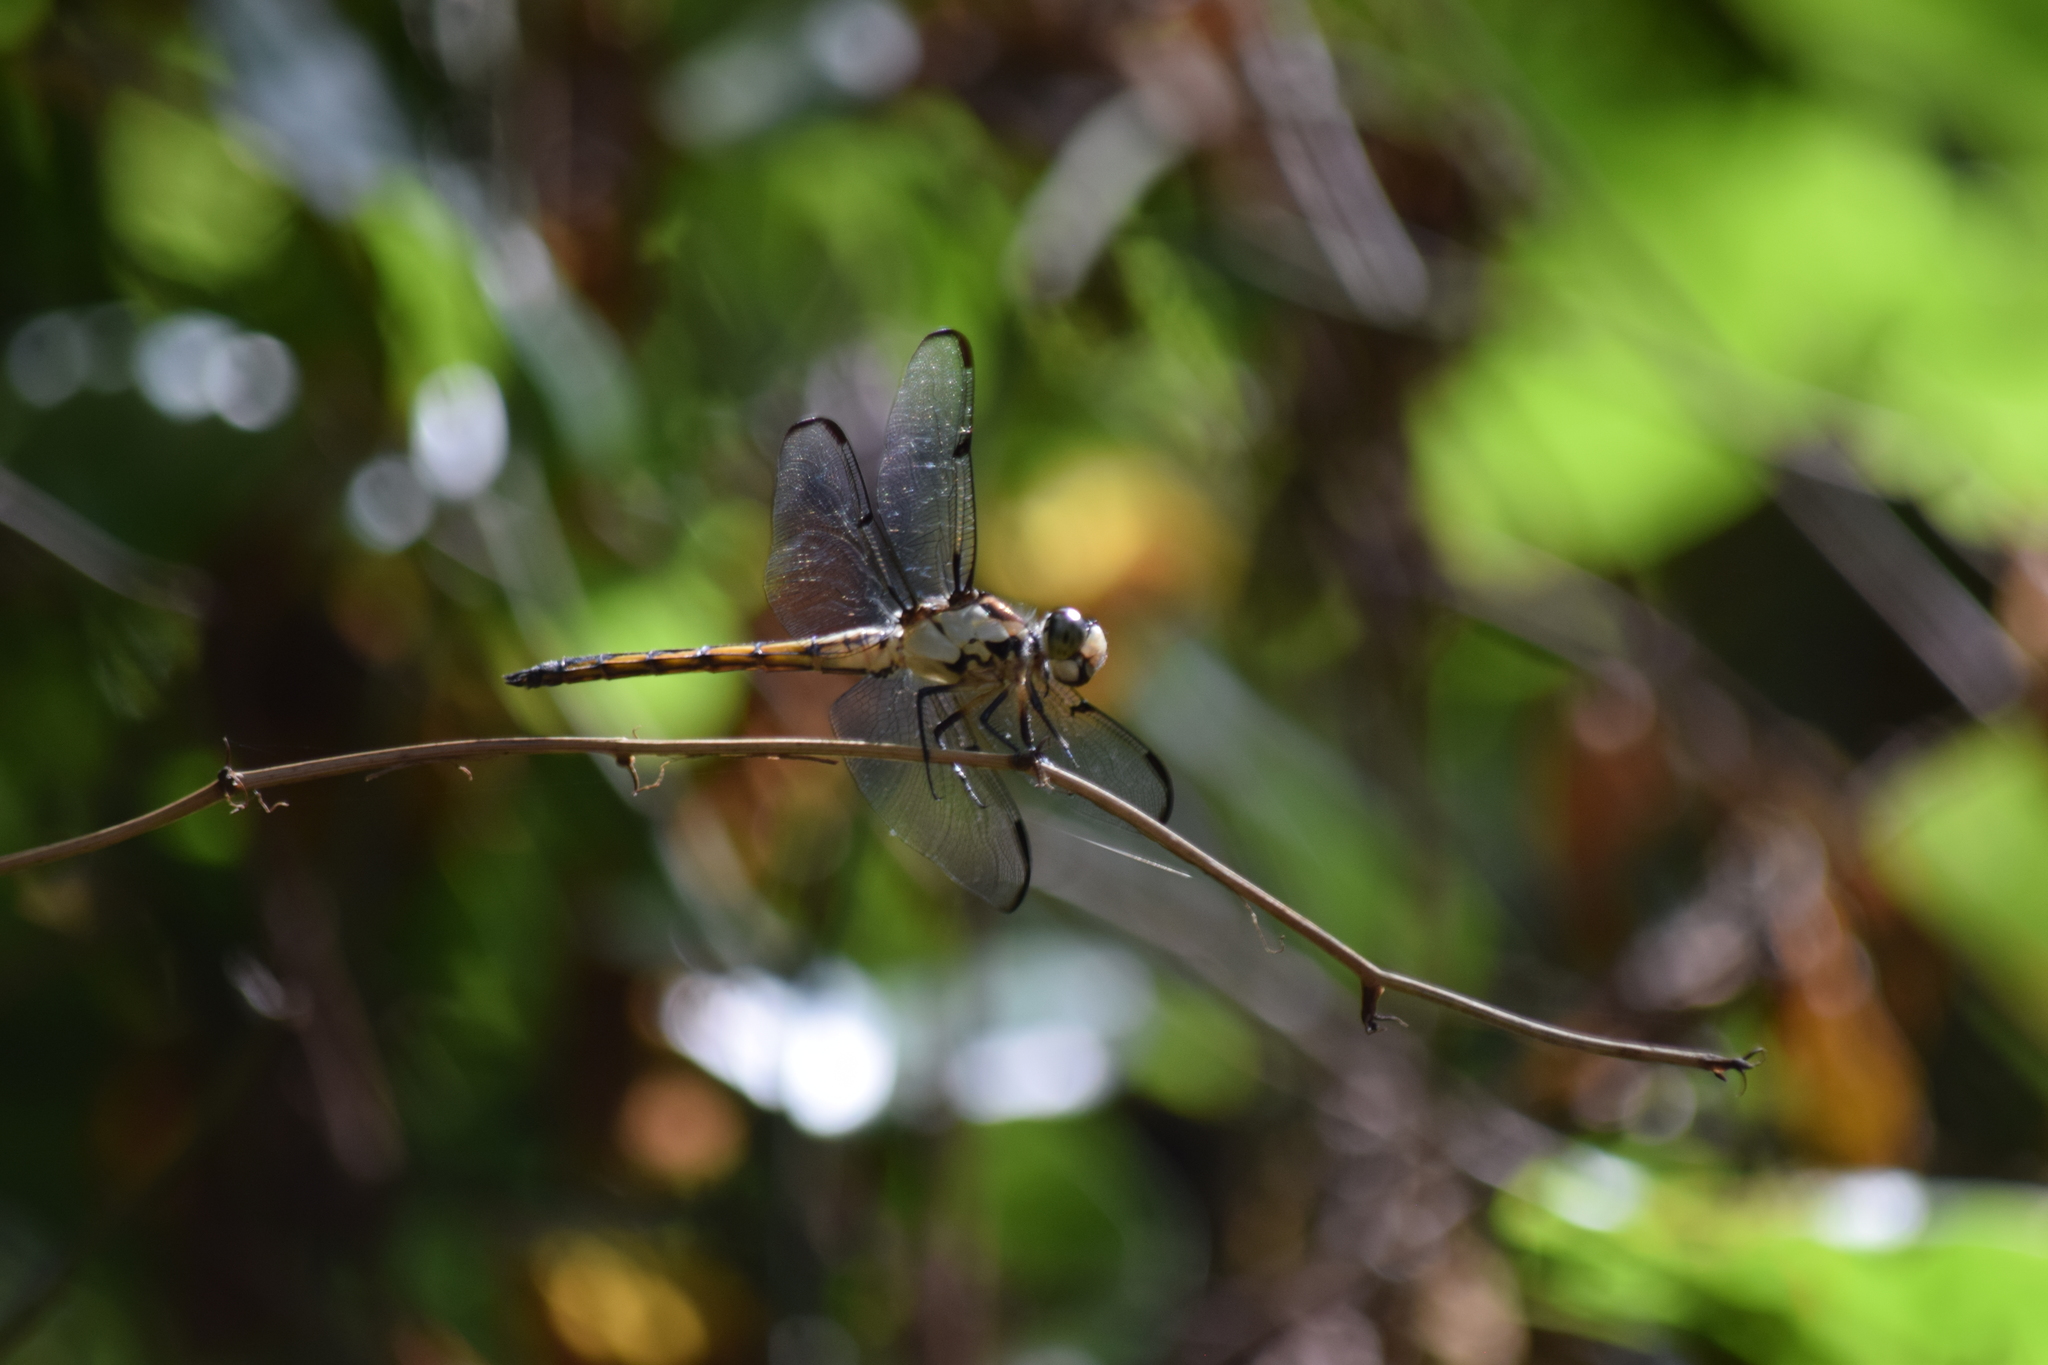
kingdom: Animalia
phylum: Arthropoda
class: Insecta
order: Odonata
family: Libellulidae
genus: Libellula
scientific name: Libellula vibrans
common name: Great blue skimmer
